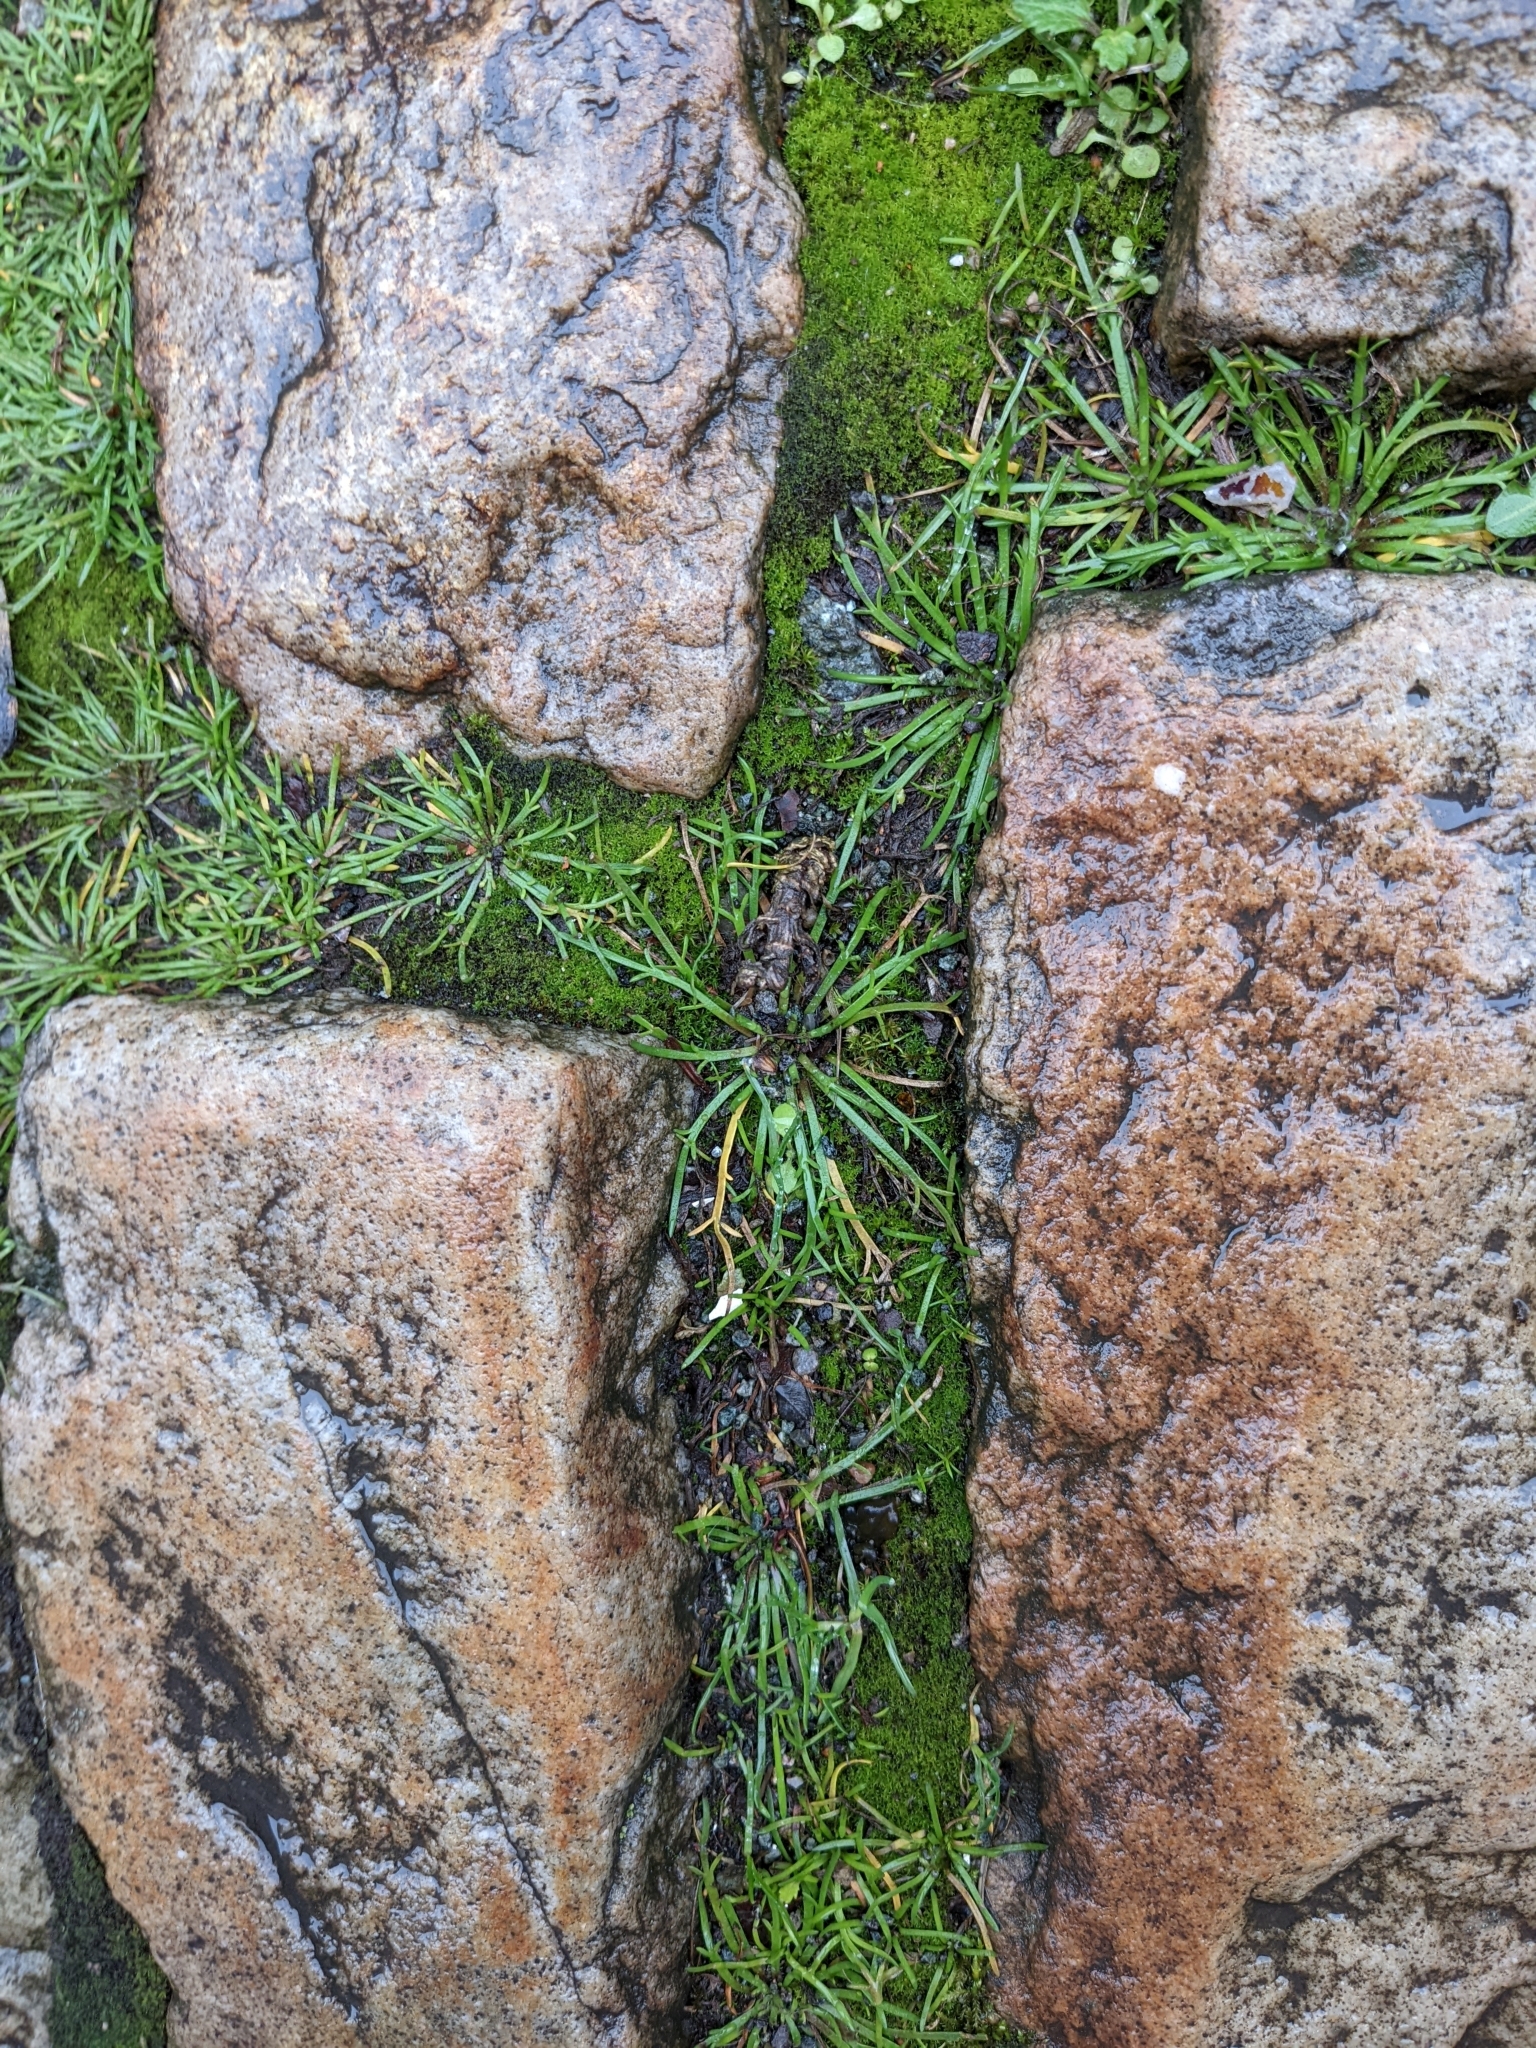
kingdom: Plantae
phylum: Tracheophyta
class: Magnoliopsida
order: Lamiales
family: Plantaginaceae
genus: Plantago
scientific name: Plantago coronopus
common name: Buck's-horn plantain
